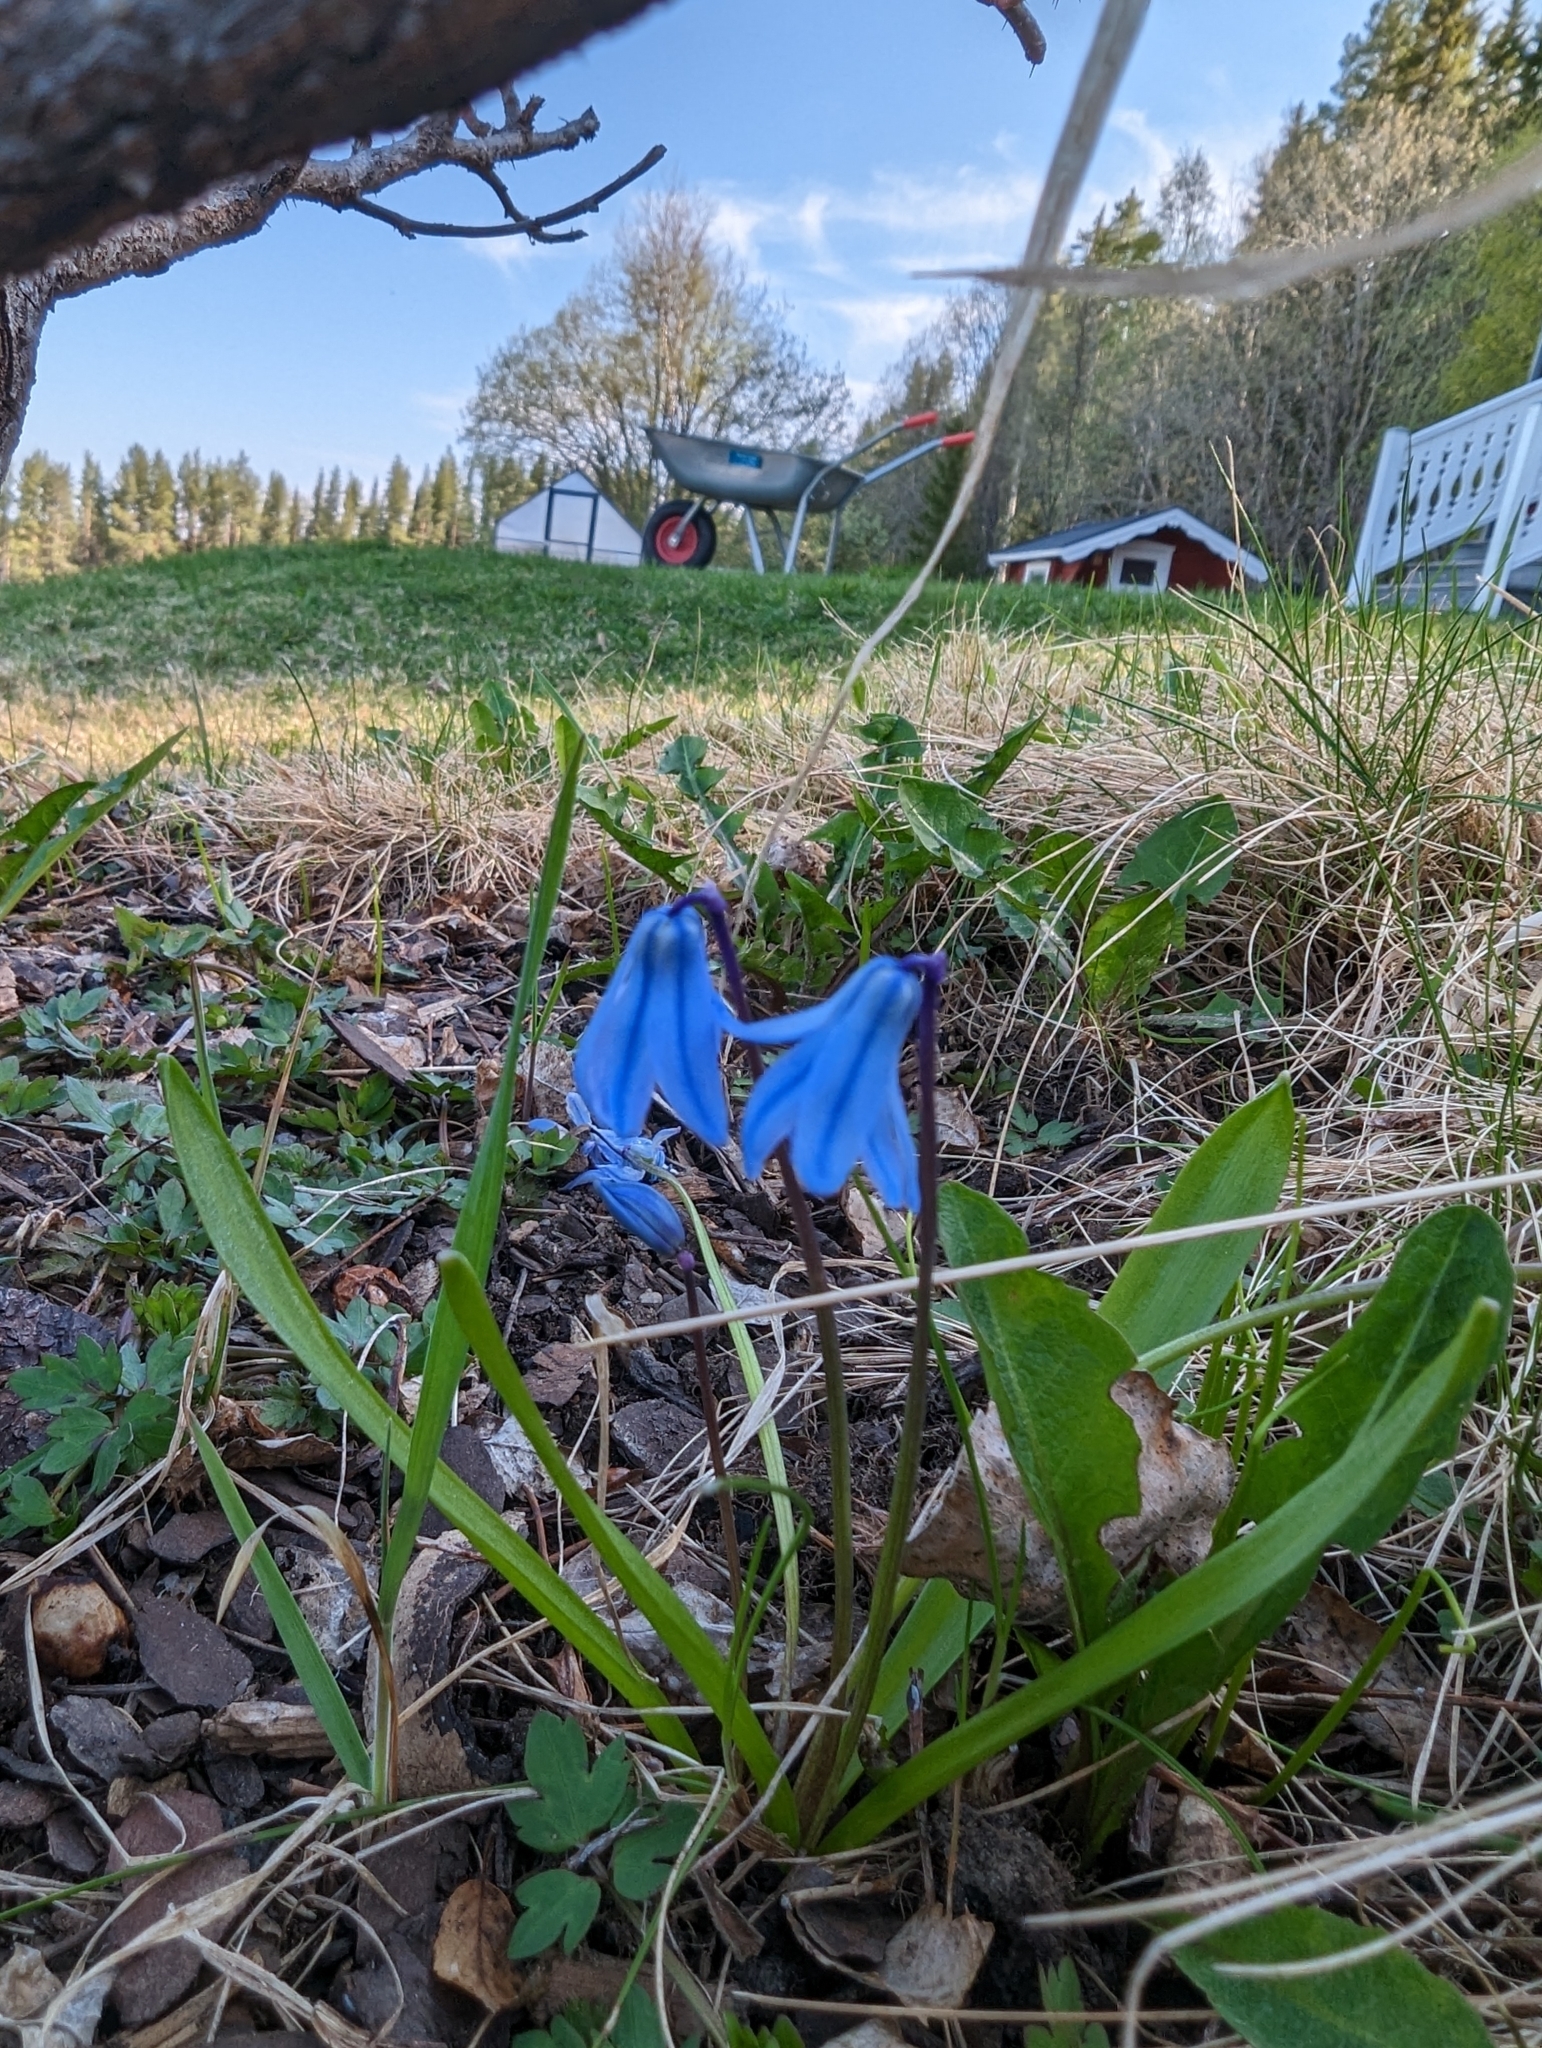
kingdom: Plantae
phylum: Tracheophyta
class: Liliopsida
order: Asparagales
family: Asparagaceae
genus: Scilla
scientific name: Scilla siberica
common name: Siberian squill
